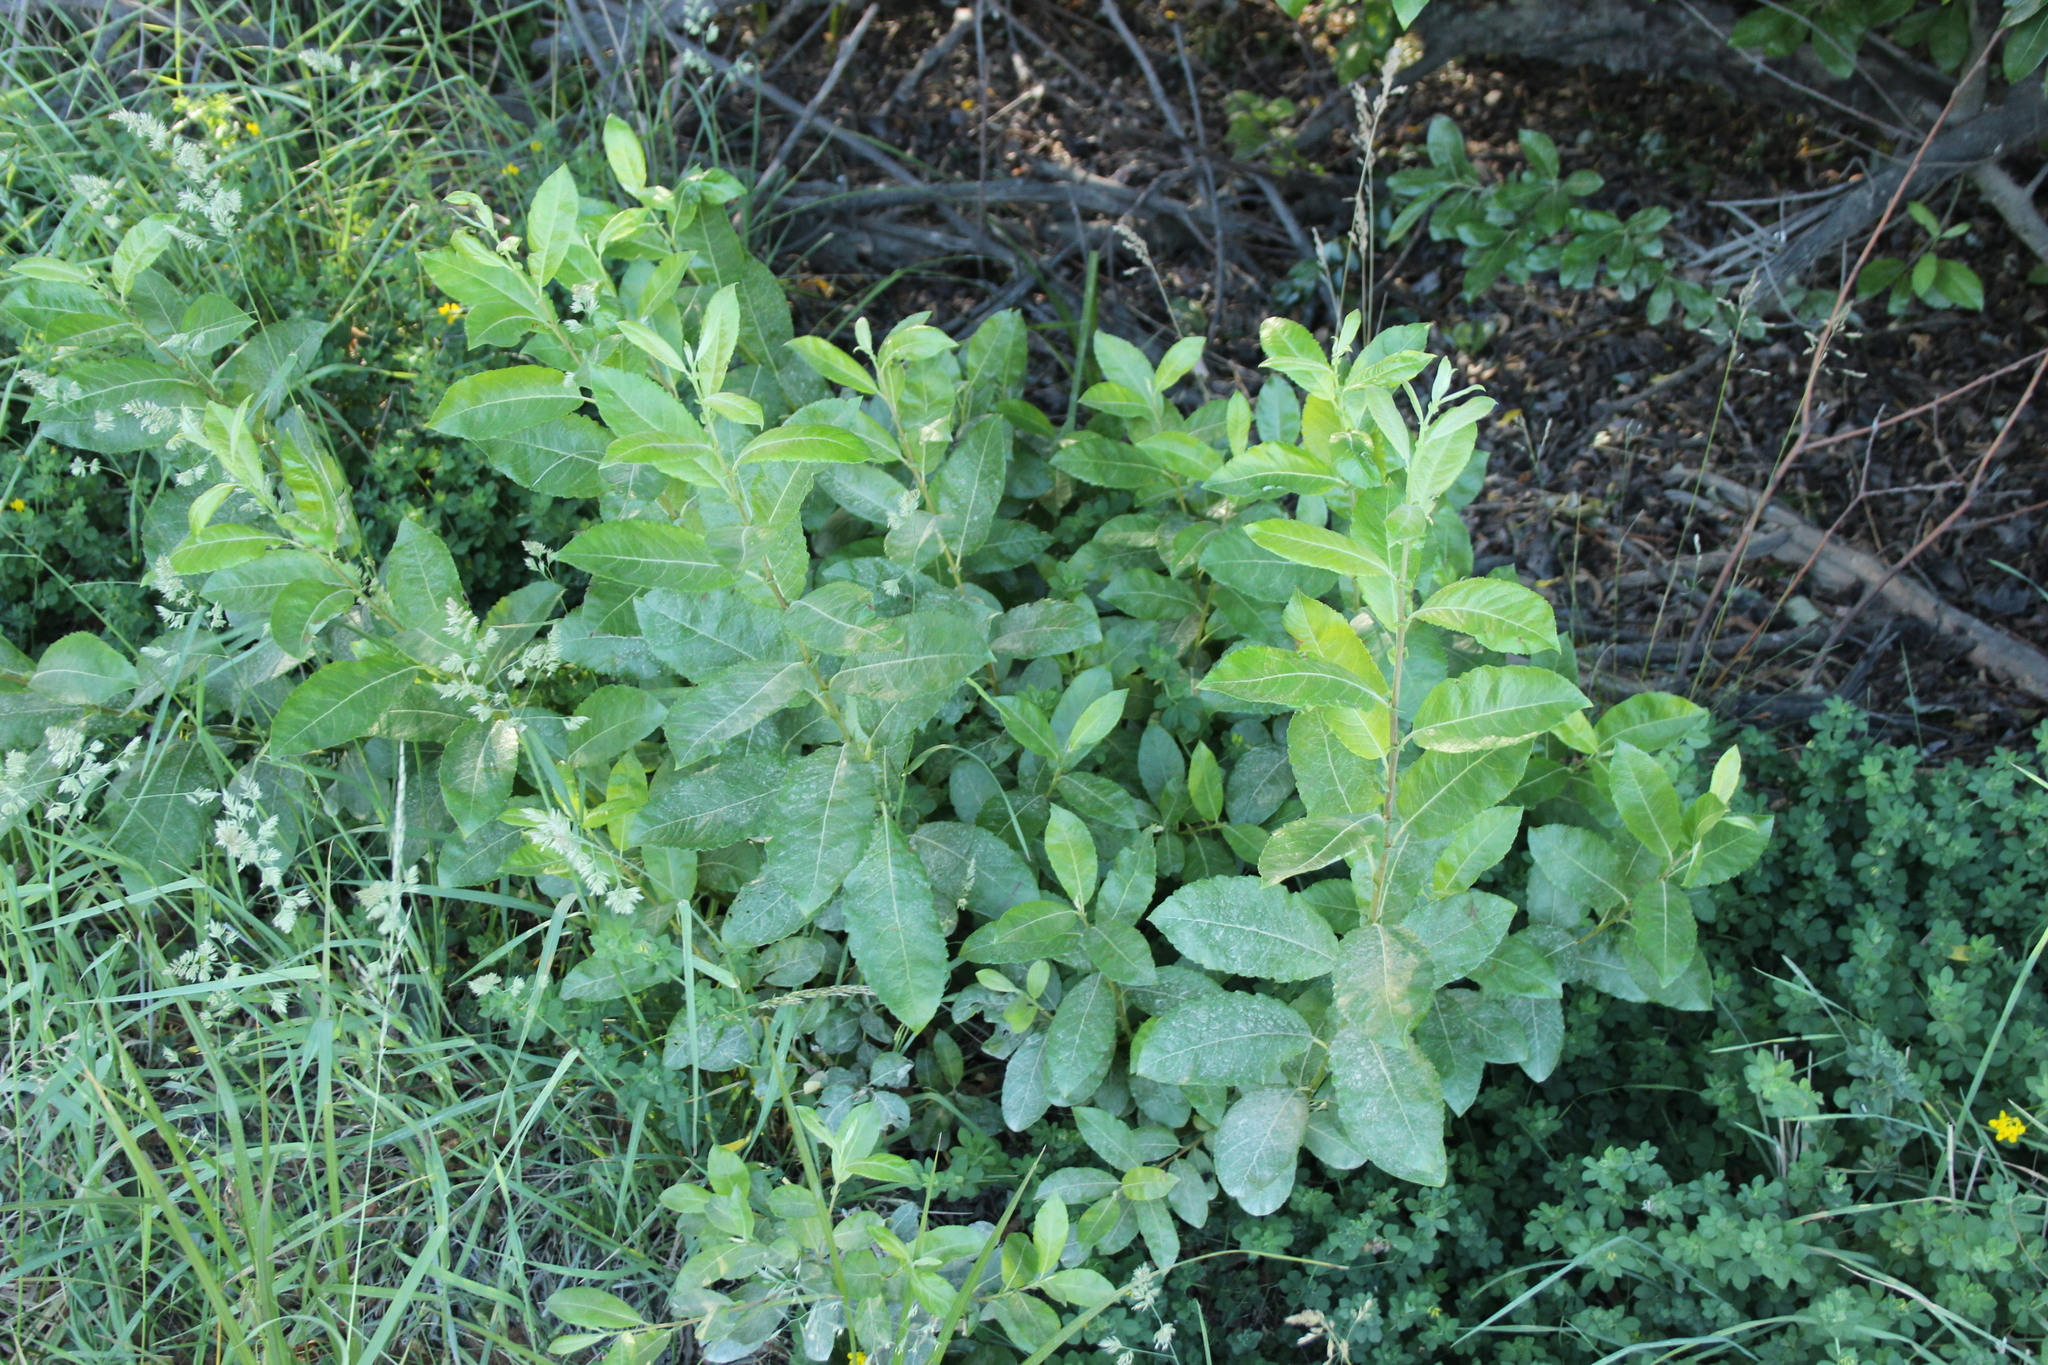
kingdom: Plantae
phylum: Tracheophyta
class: Magnoliopsida
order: Rosales
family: Rosaceae
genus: Malus
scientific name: Malus domestica
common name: Apple
